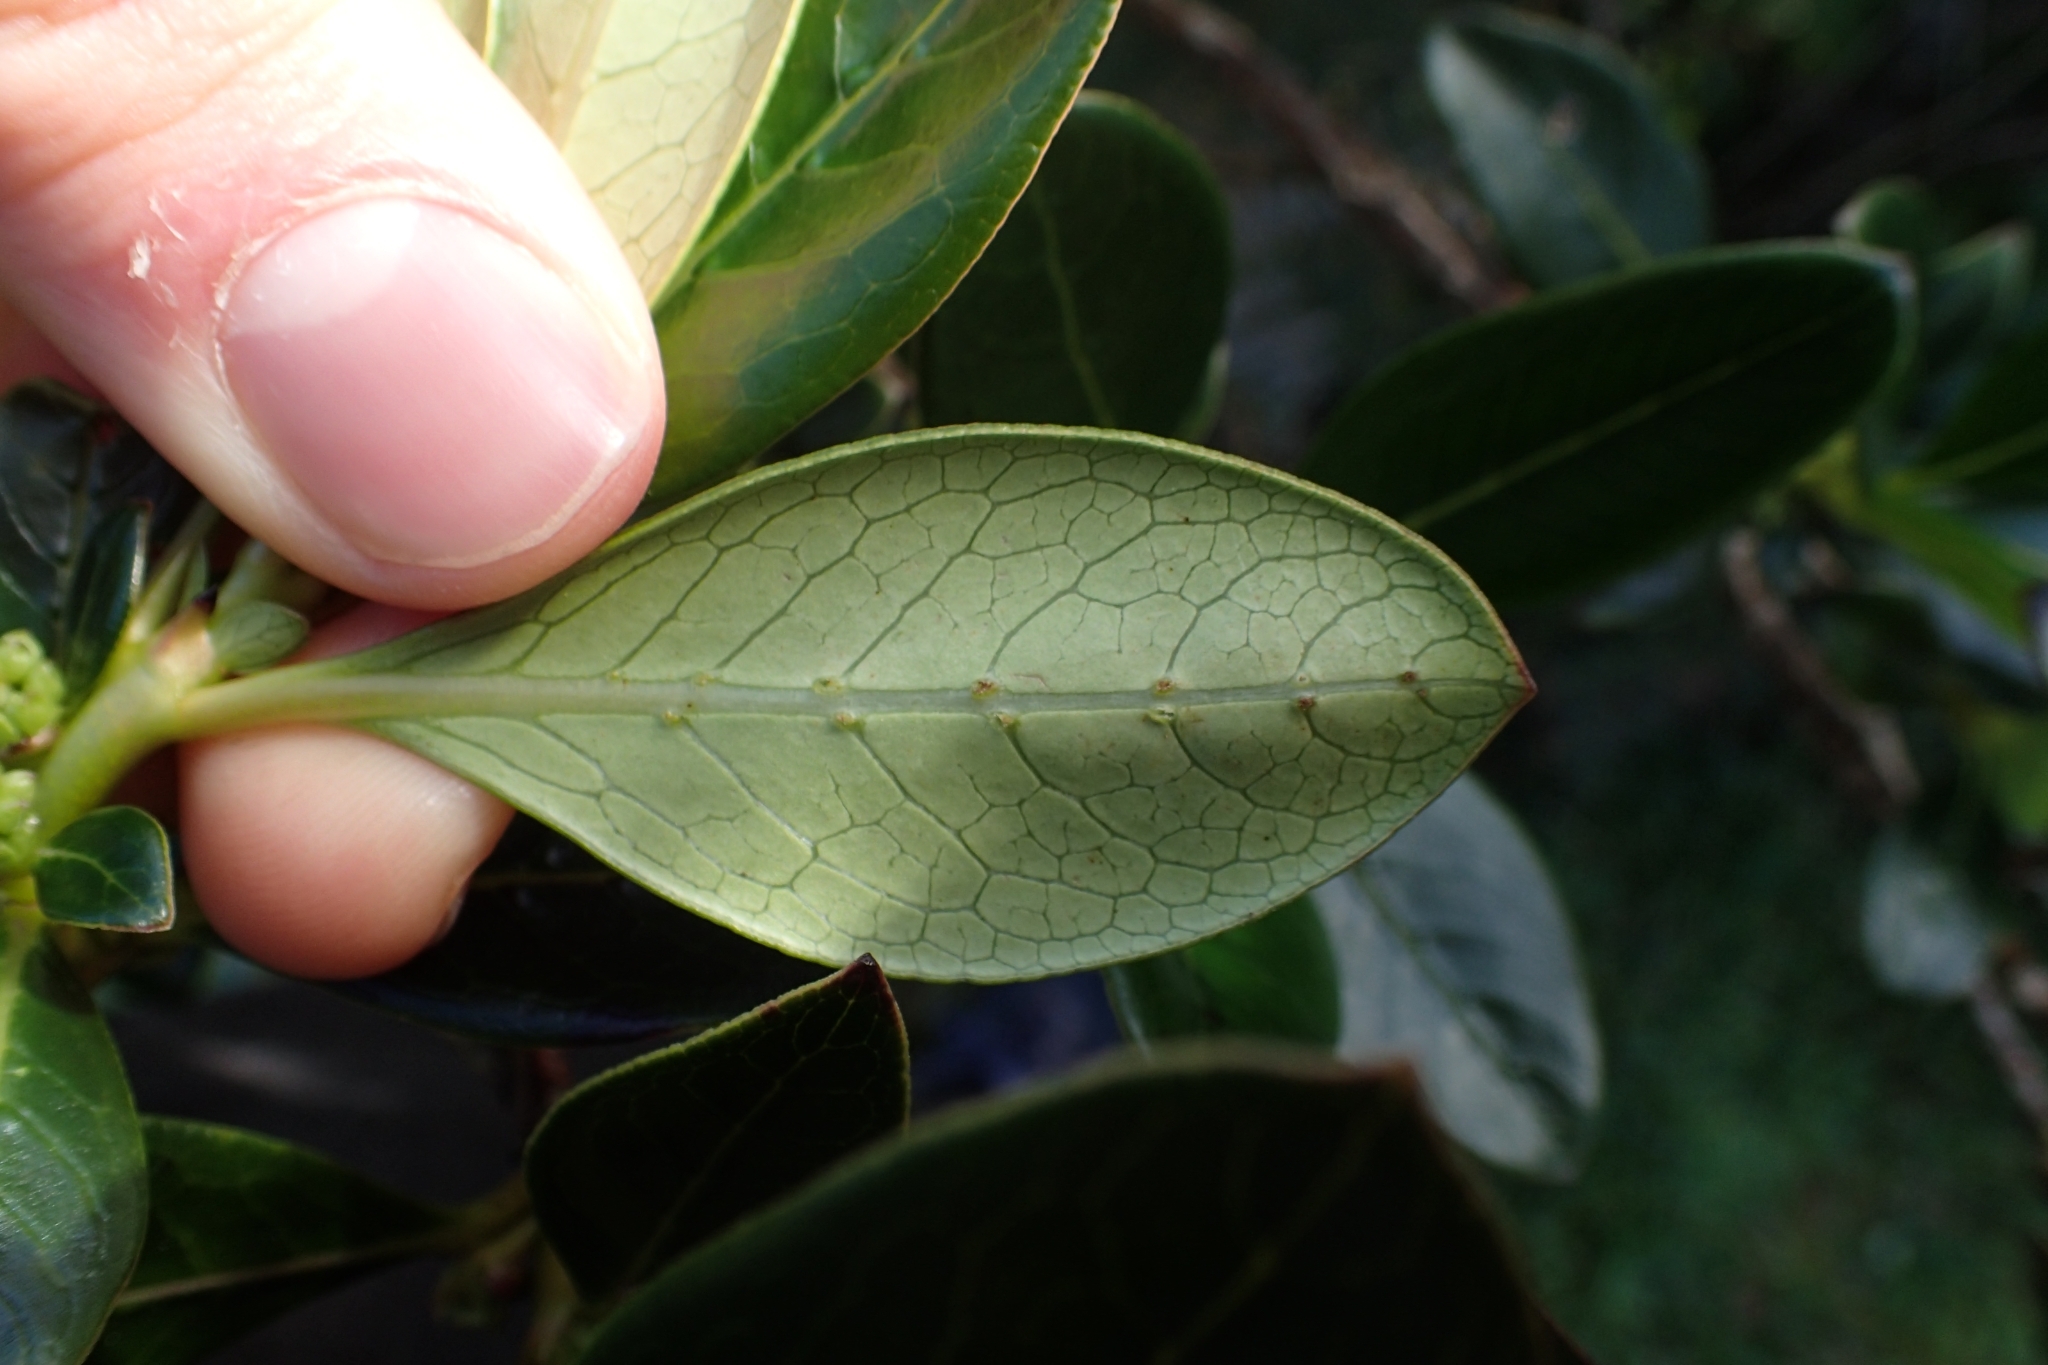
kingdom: Plantae
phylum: Tracheophyta
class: Magnoliopsida
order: Gentianales
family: Rubiaceae
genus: Coprosma
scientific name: Coprosma robusta
